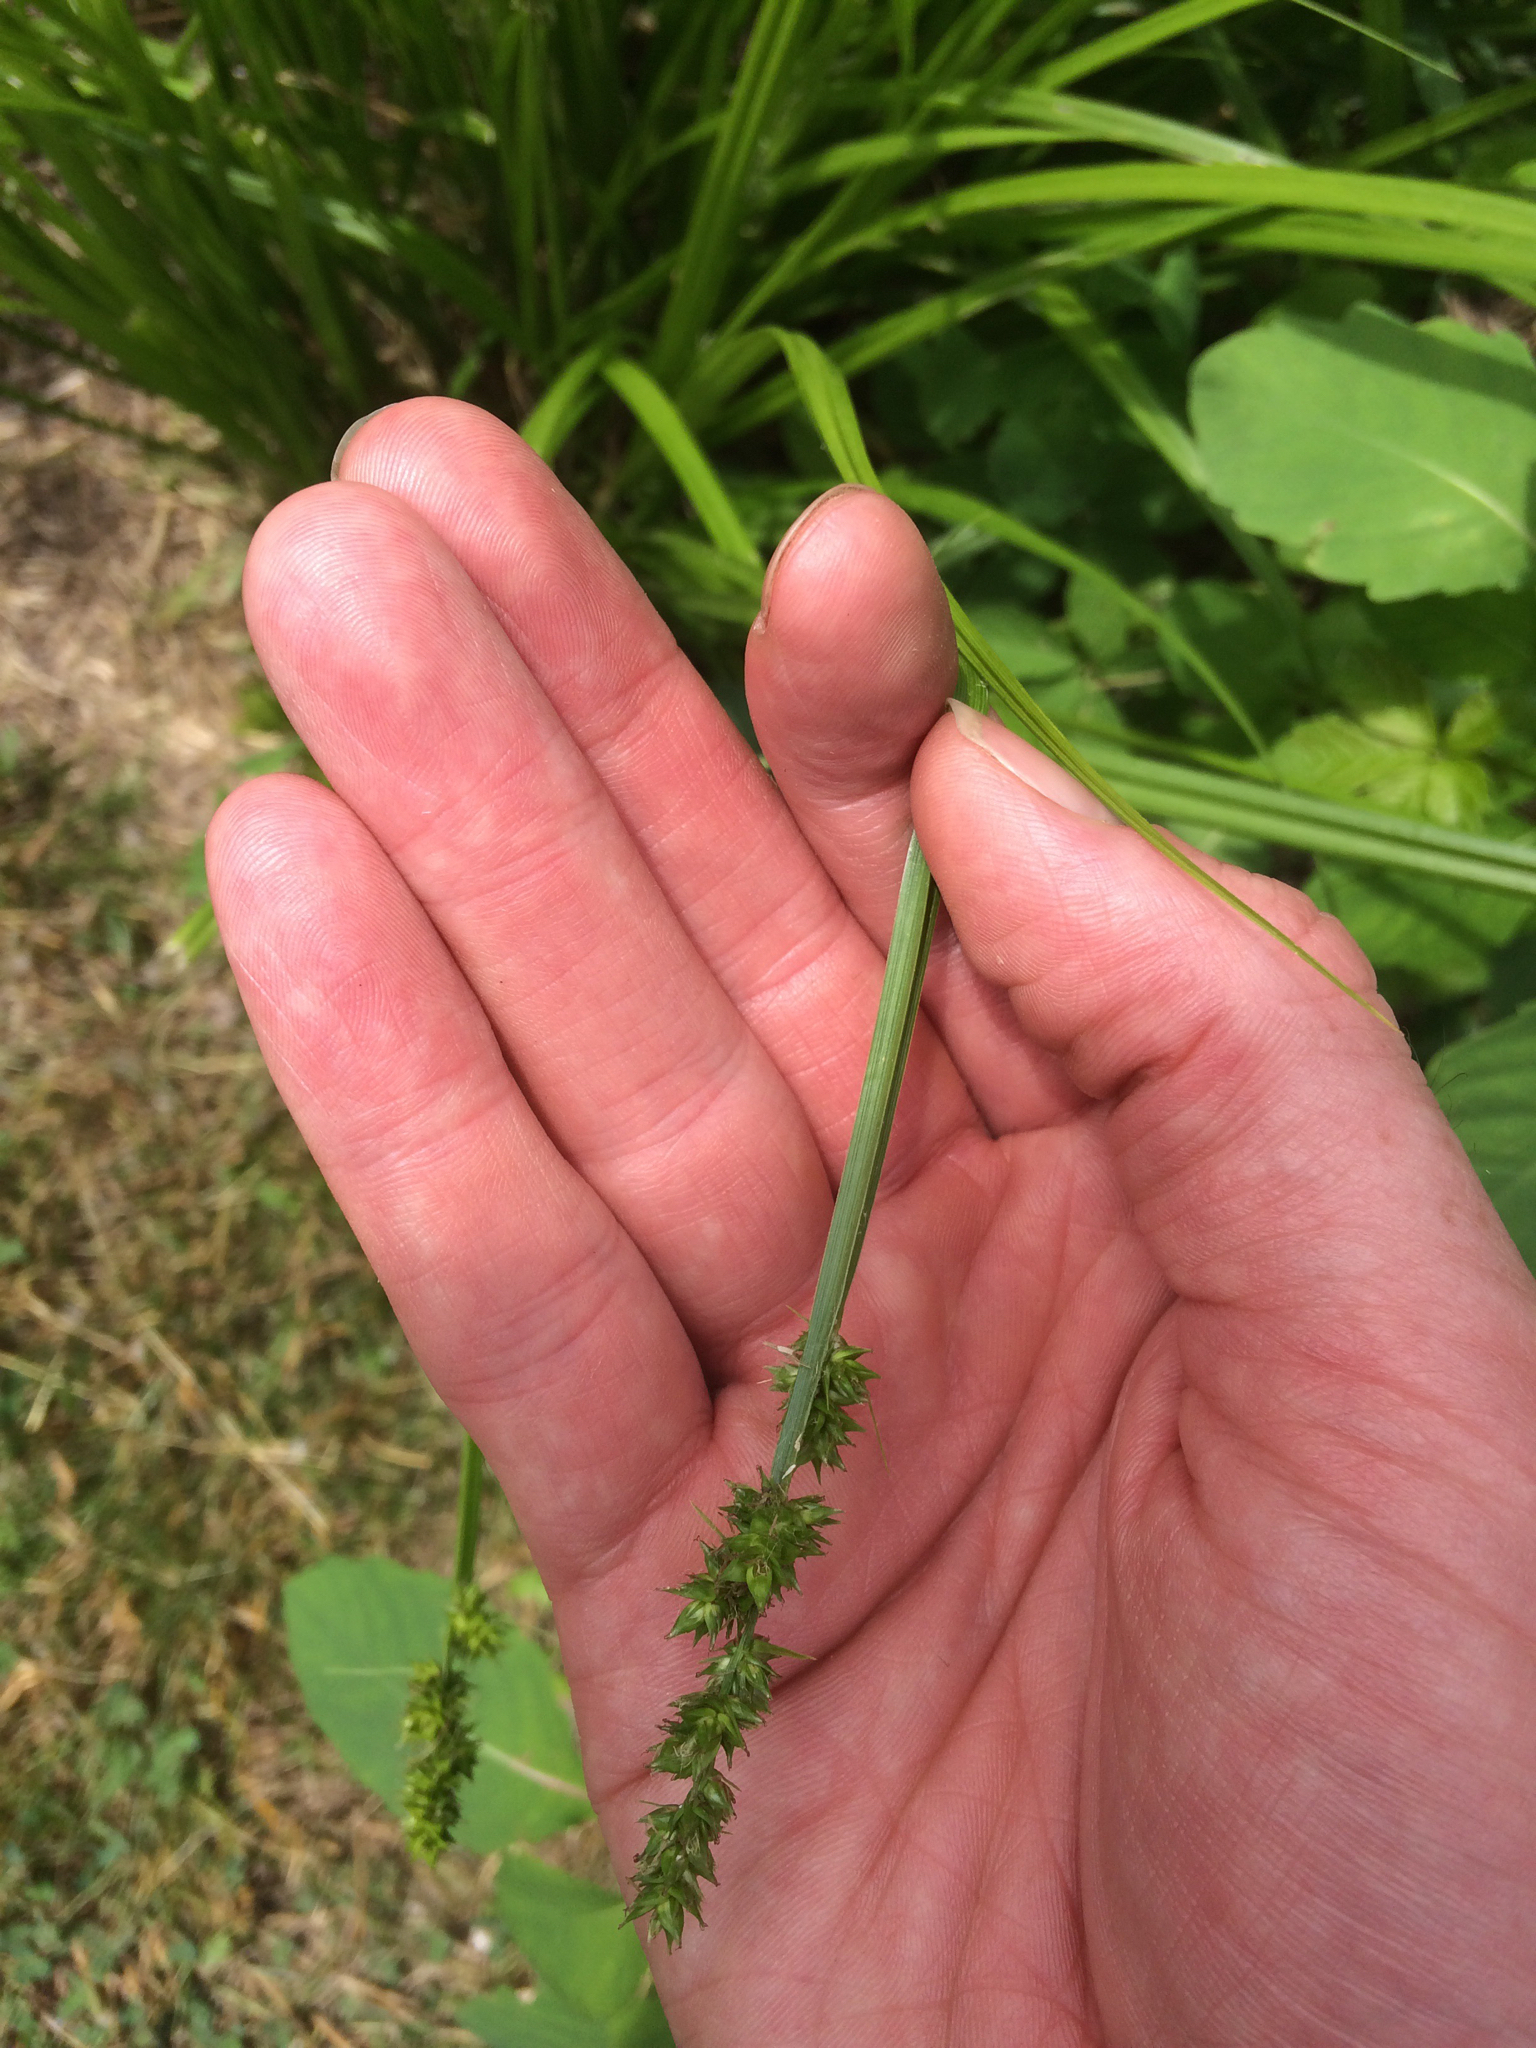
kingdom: Plantae
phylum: Tracheophyta
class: Liliopsida
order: Poales
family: Cyperaceae
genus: Carex
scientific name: Carex stipata
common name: Awl-fruited sedge
